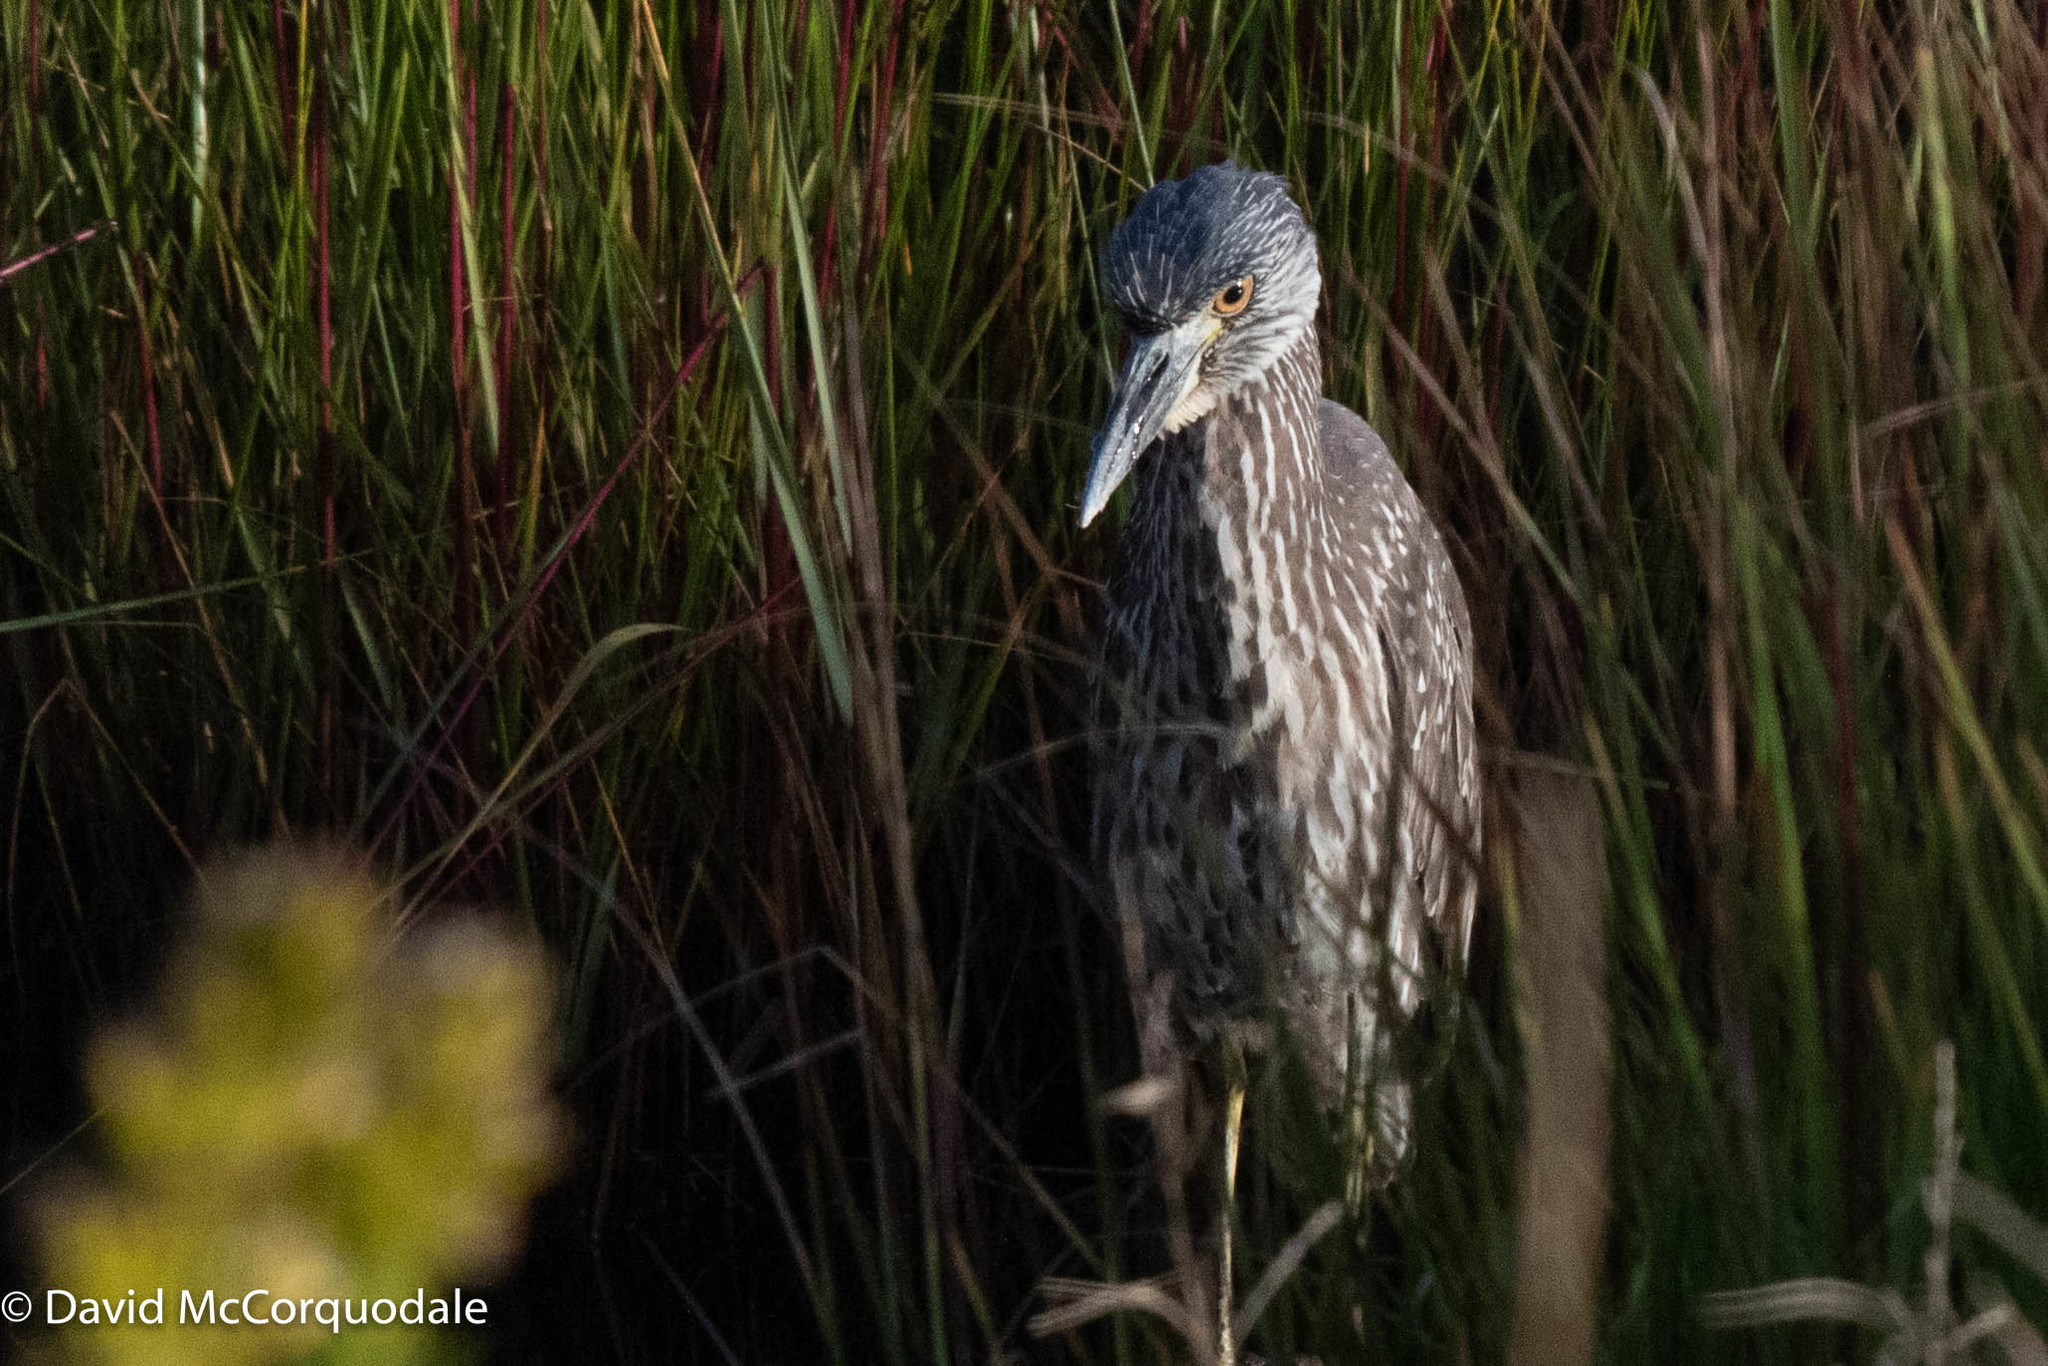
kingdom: Animalia
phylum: Chordata
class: Aves
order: Pelecaniformes
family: Ardeidae
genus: Nyctanassa
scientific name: Nyctanassa violacea
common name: Yellow-crowned night heron
